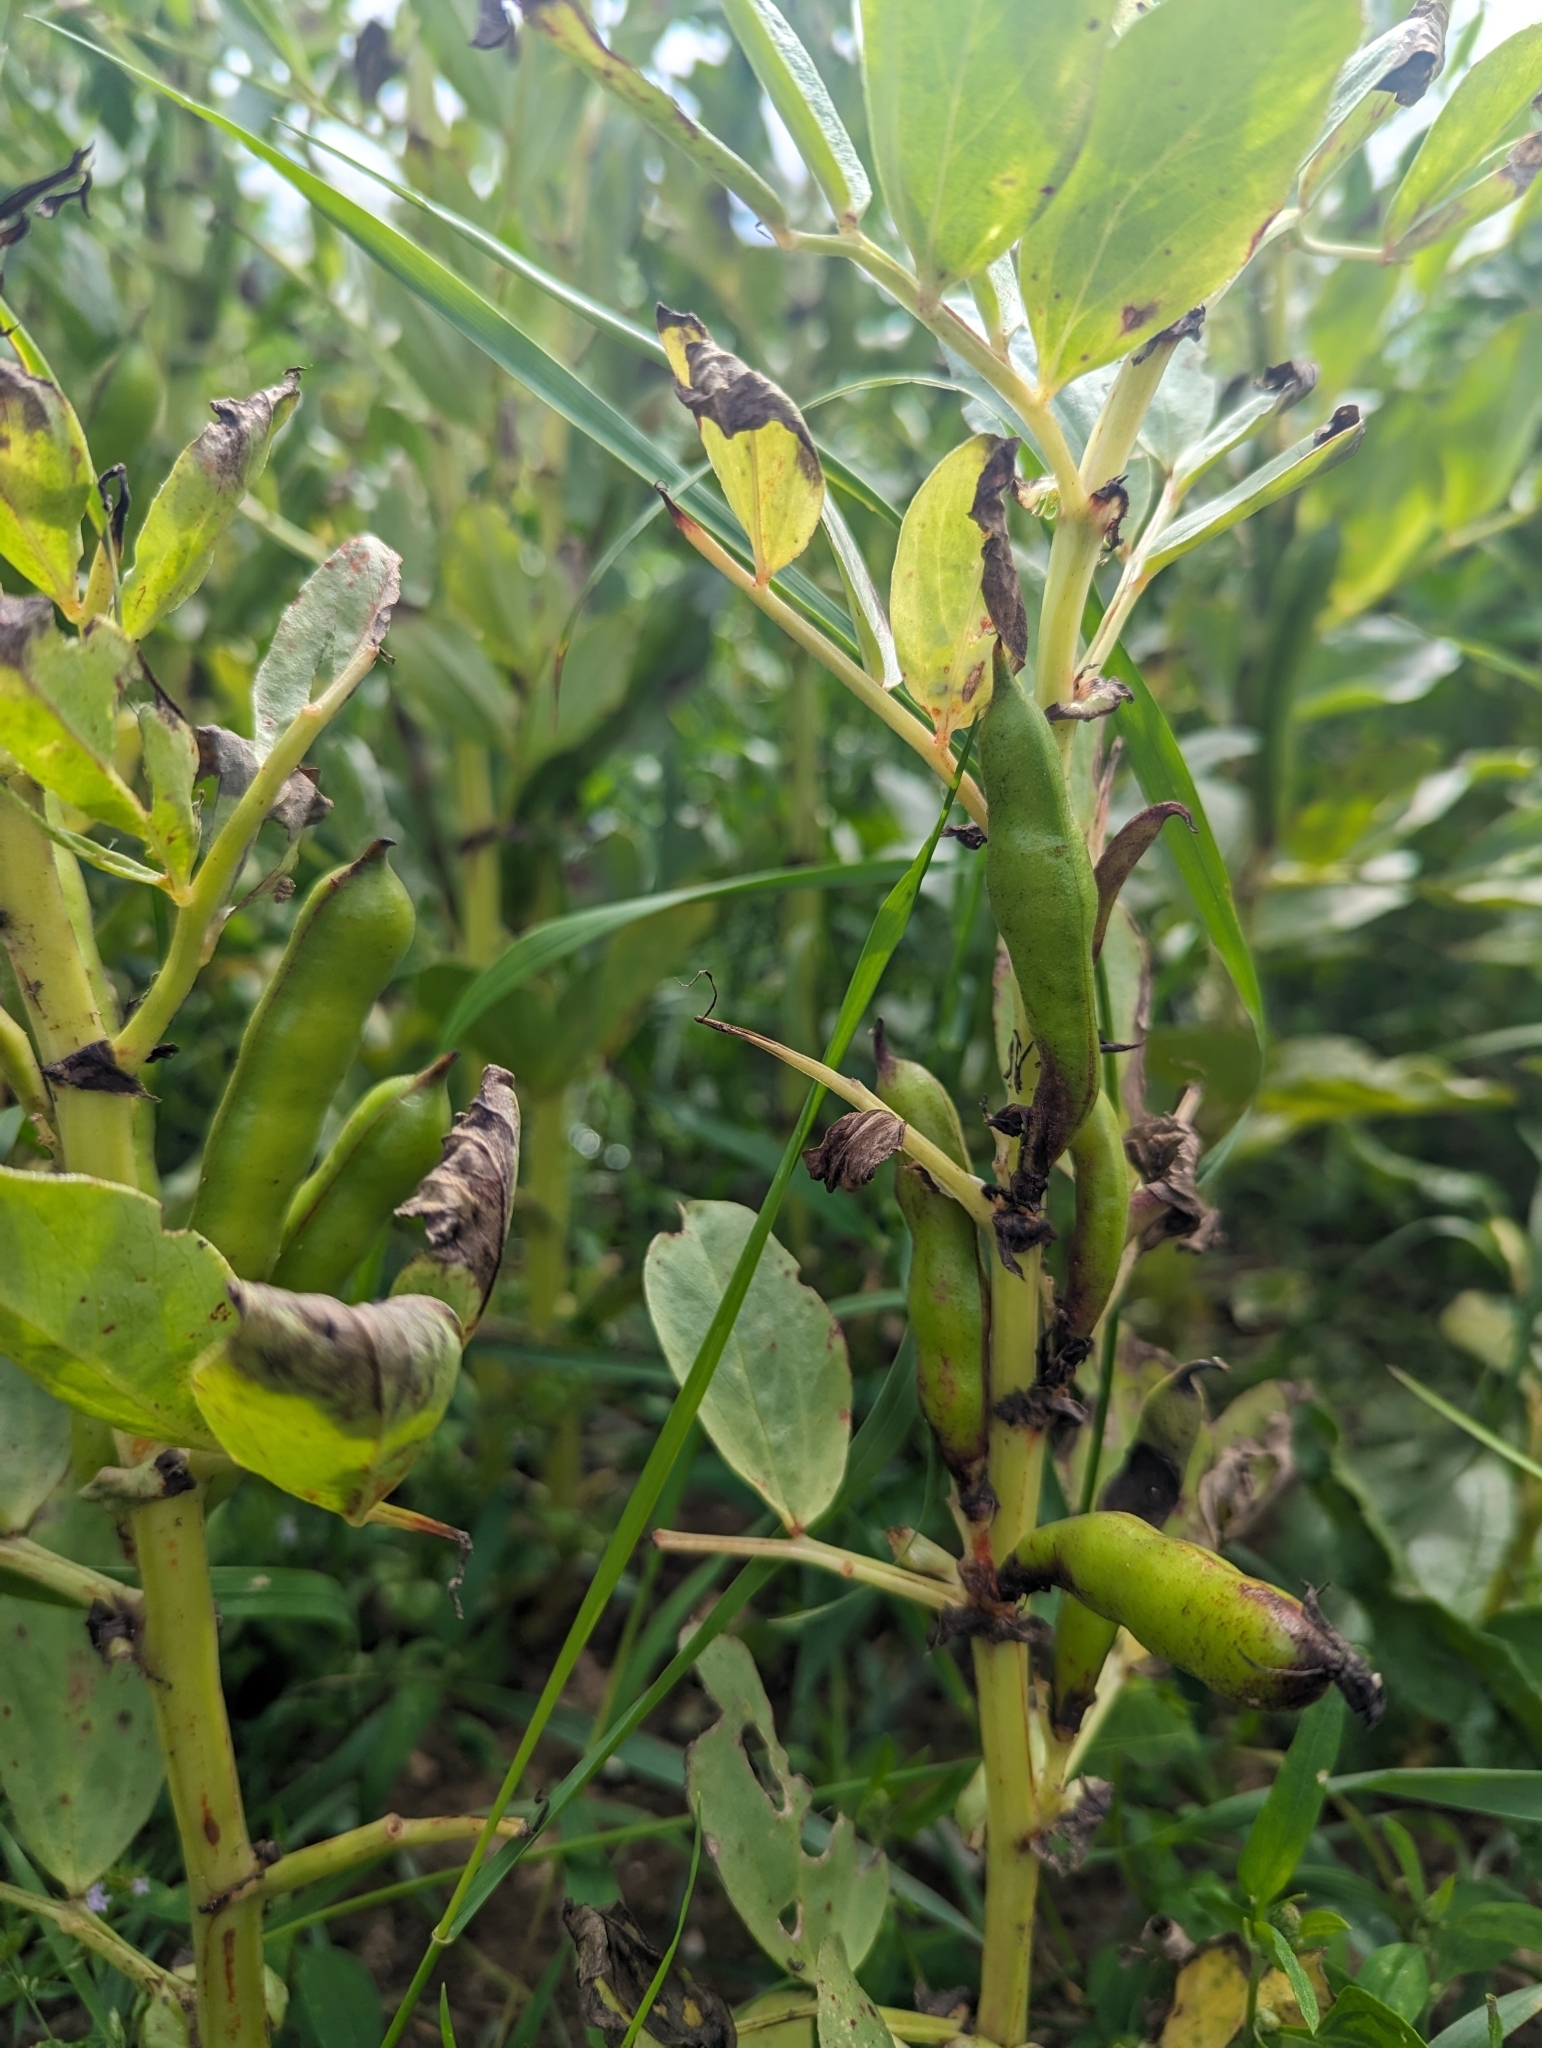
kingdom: Plantae
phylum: Tracheophyta
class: Magnoliopsida
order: Fabales
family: Fabaceae
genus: Vicia
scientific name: Vicia faba
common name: Broad bean
